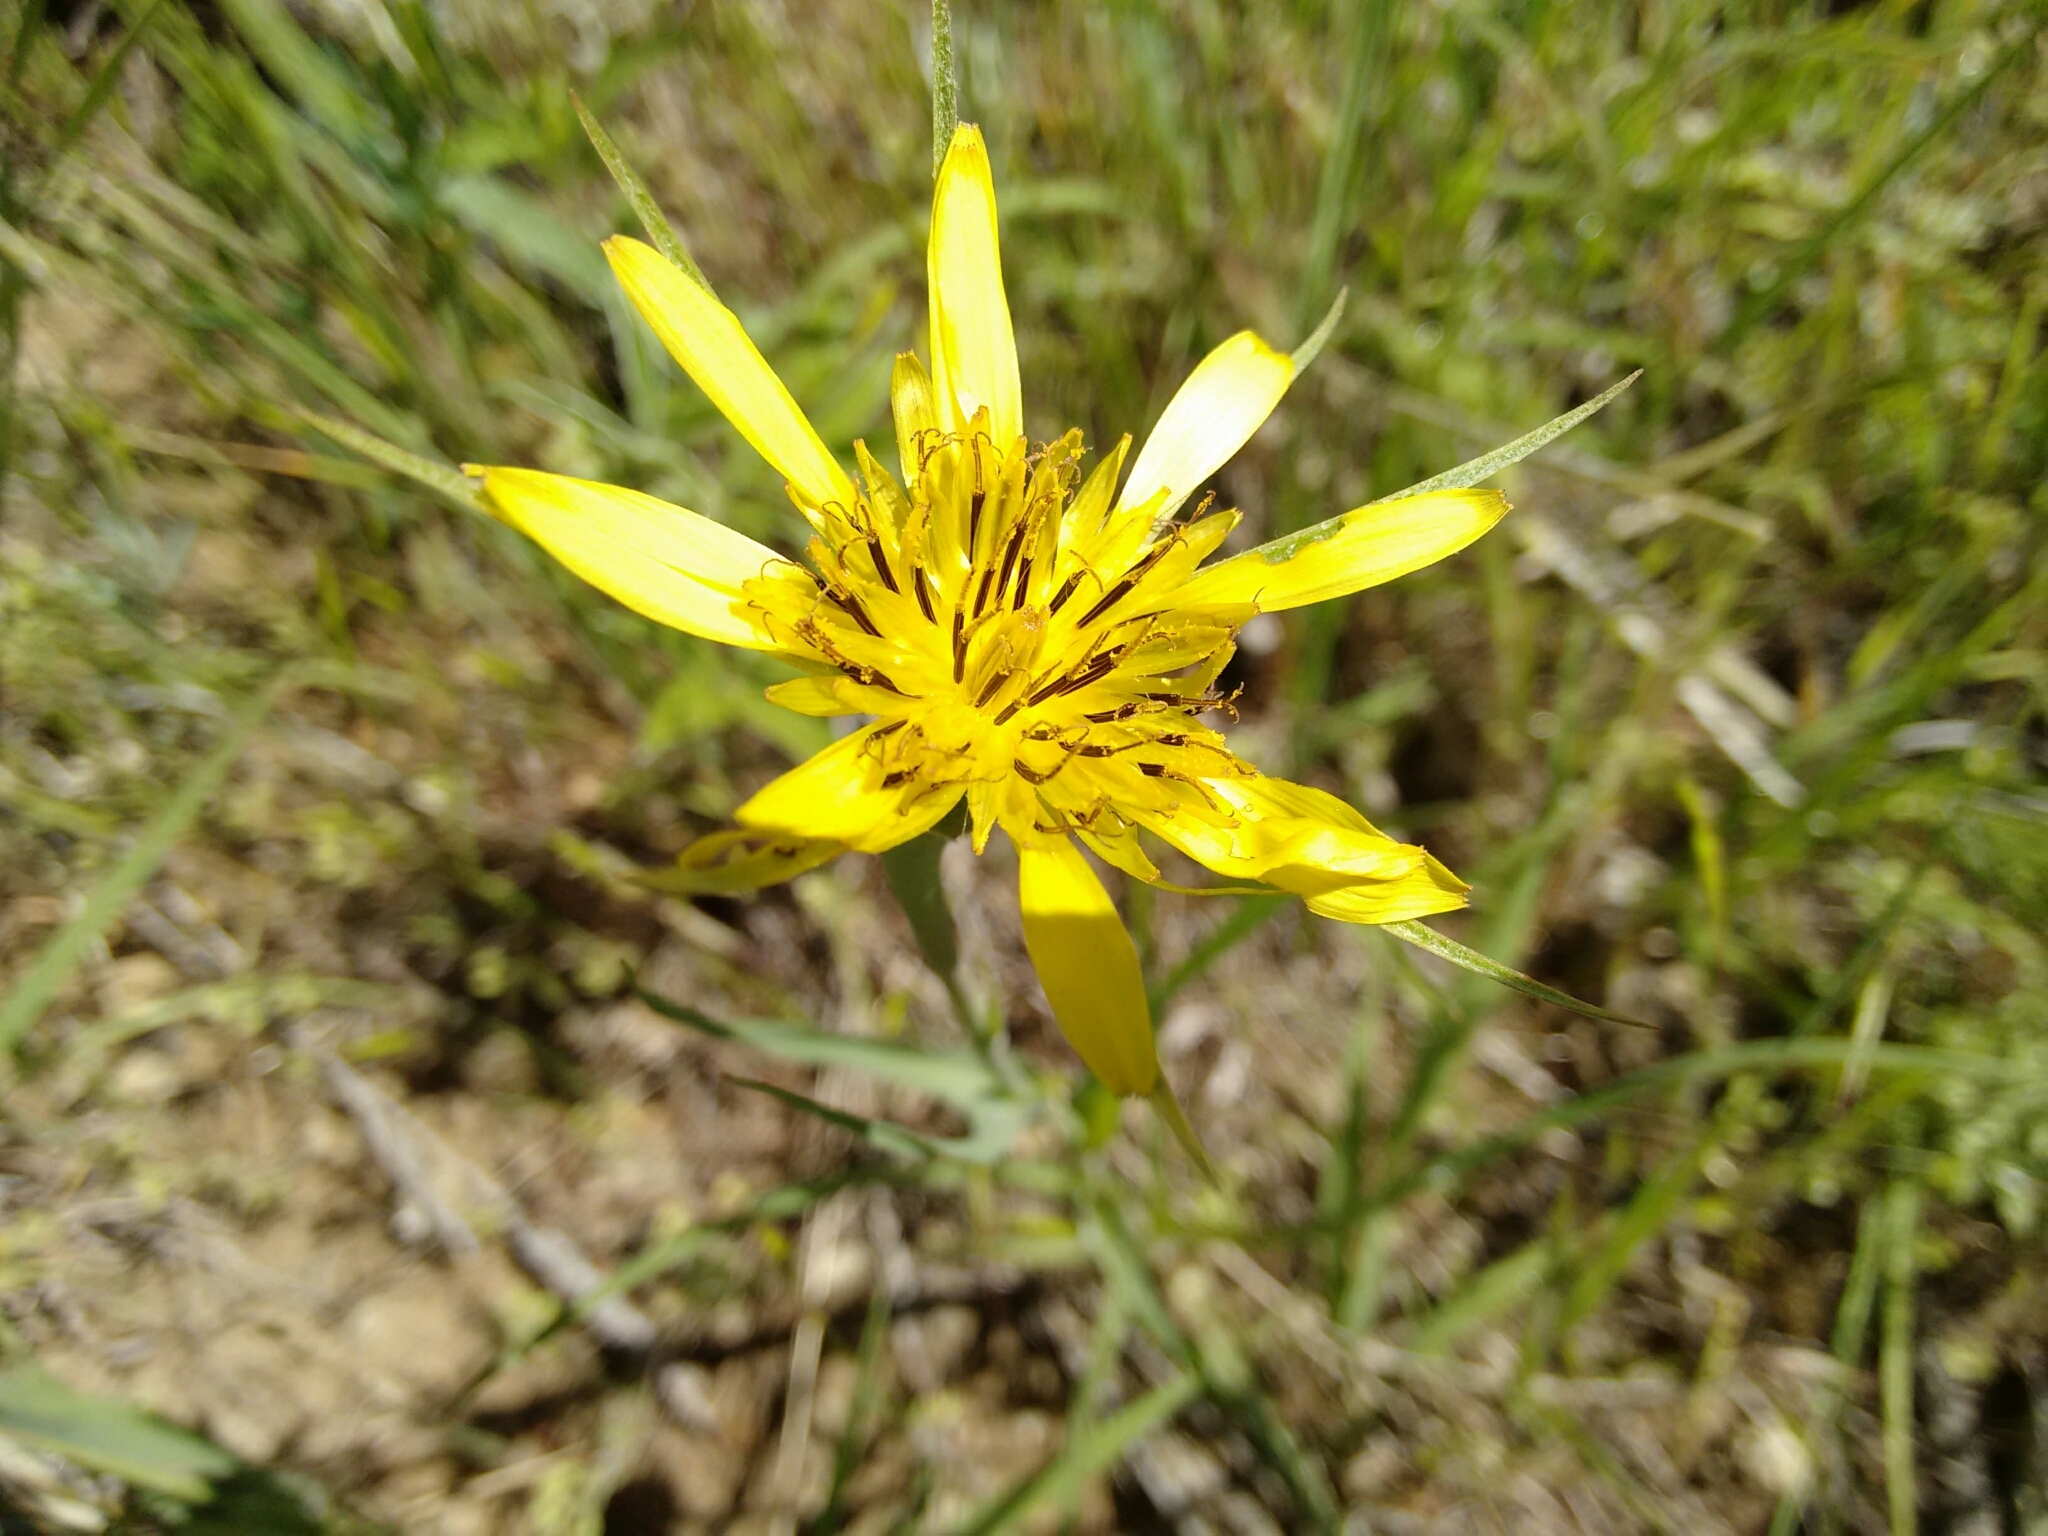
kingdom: Plantae
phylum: Tracheophyta
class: Magnoliopsida
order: Asterales
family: Asteraceae
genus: Tragopogon
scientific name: Tragopogon dubius
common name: Yellow salsify
